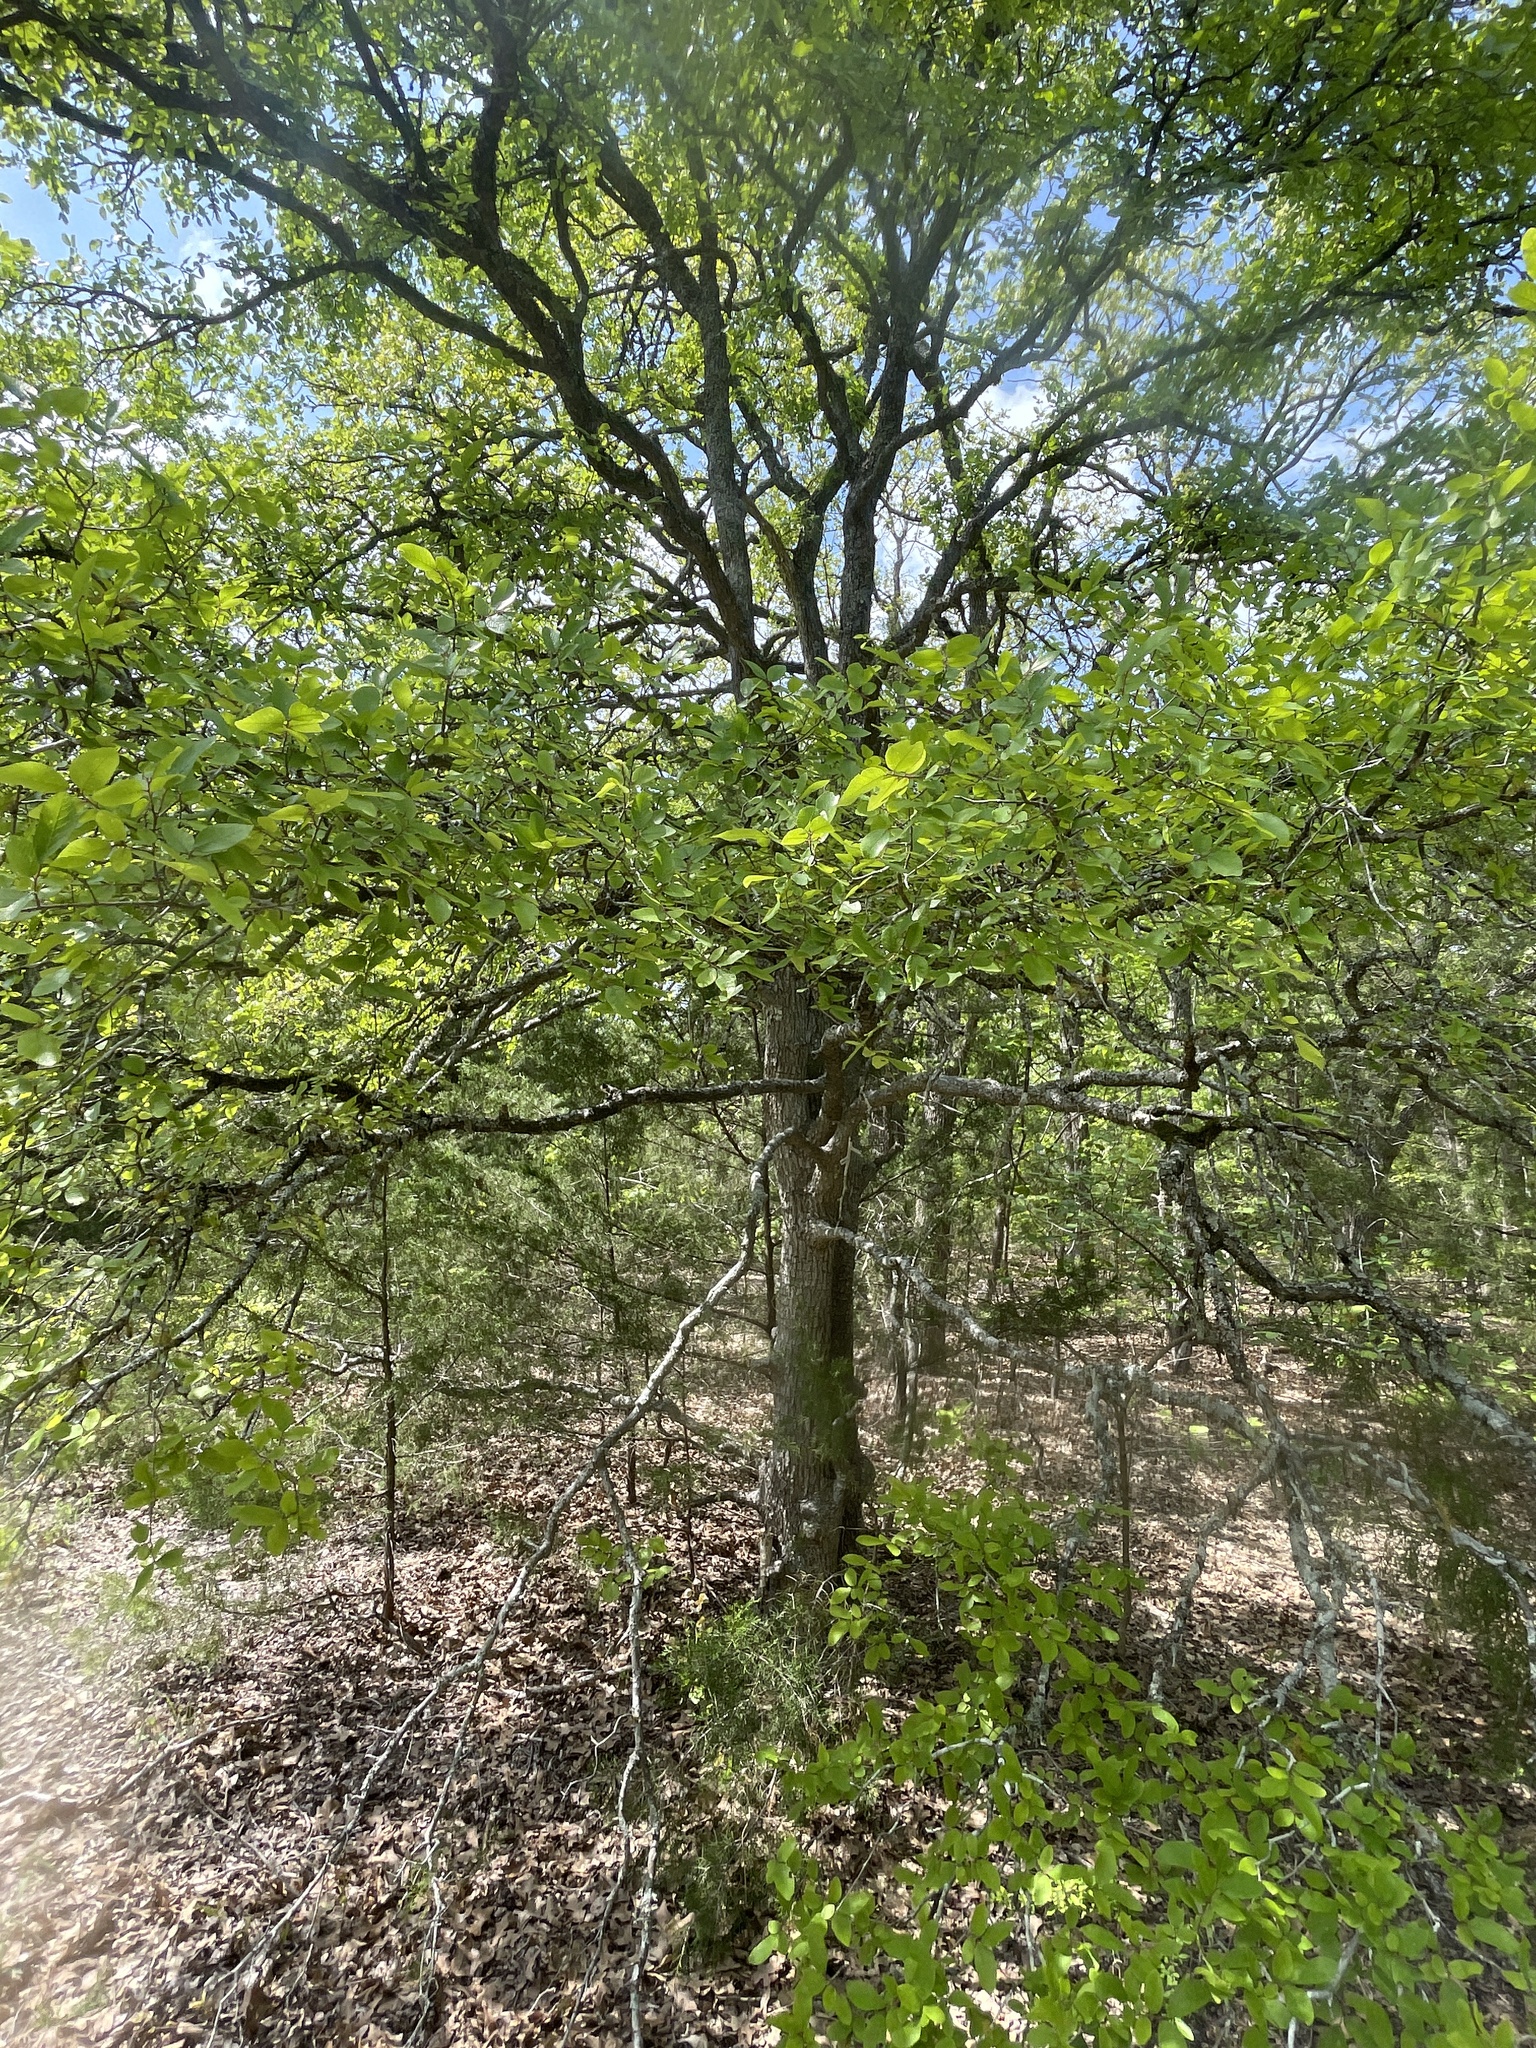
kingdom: Plantae
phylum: Tracheophyta
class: Magnoliopsida
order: Rosales
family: Ulmaceae
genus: Ulmus
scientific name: Ulmus crassifolia
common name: Basket elm
